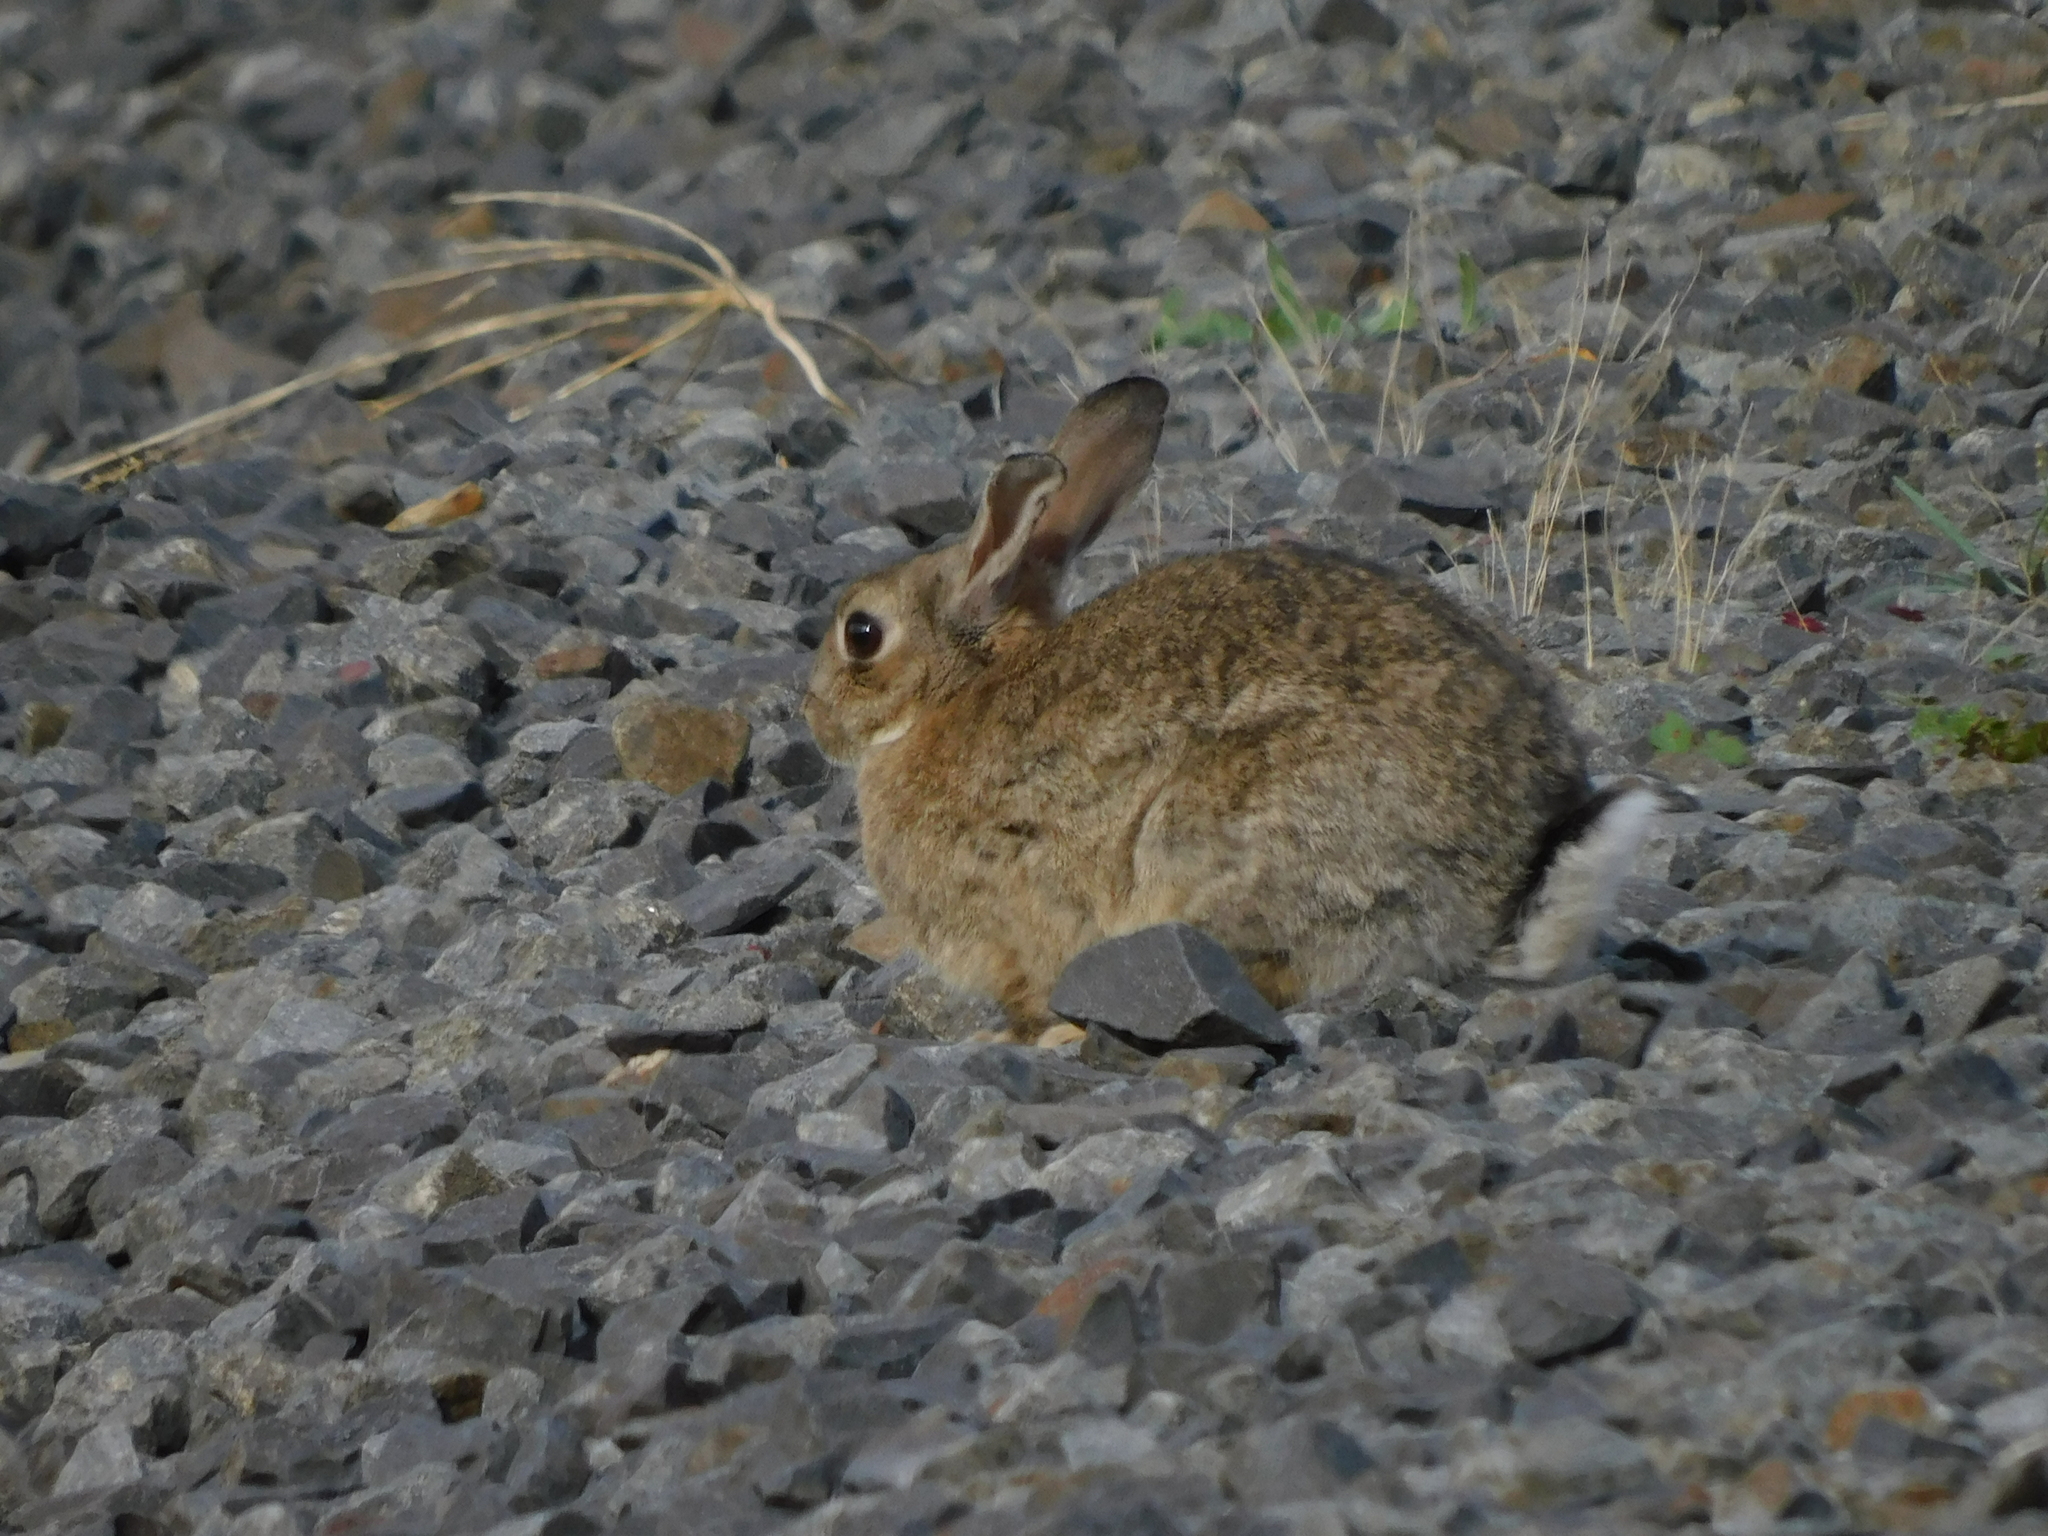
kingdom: Animalia
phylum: Chordata
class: Mammalia
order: Lagomorpha
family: Leporidae
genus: Oryctolagus
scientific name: Oryctolagus cuniculus
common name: European rabbit
